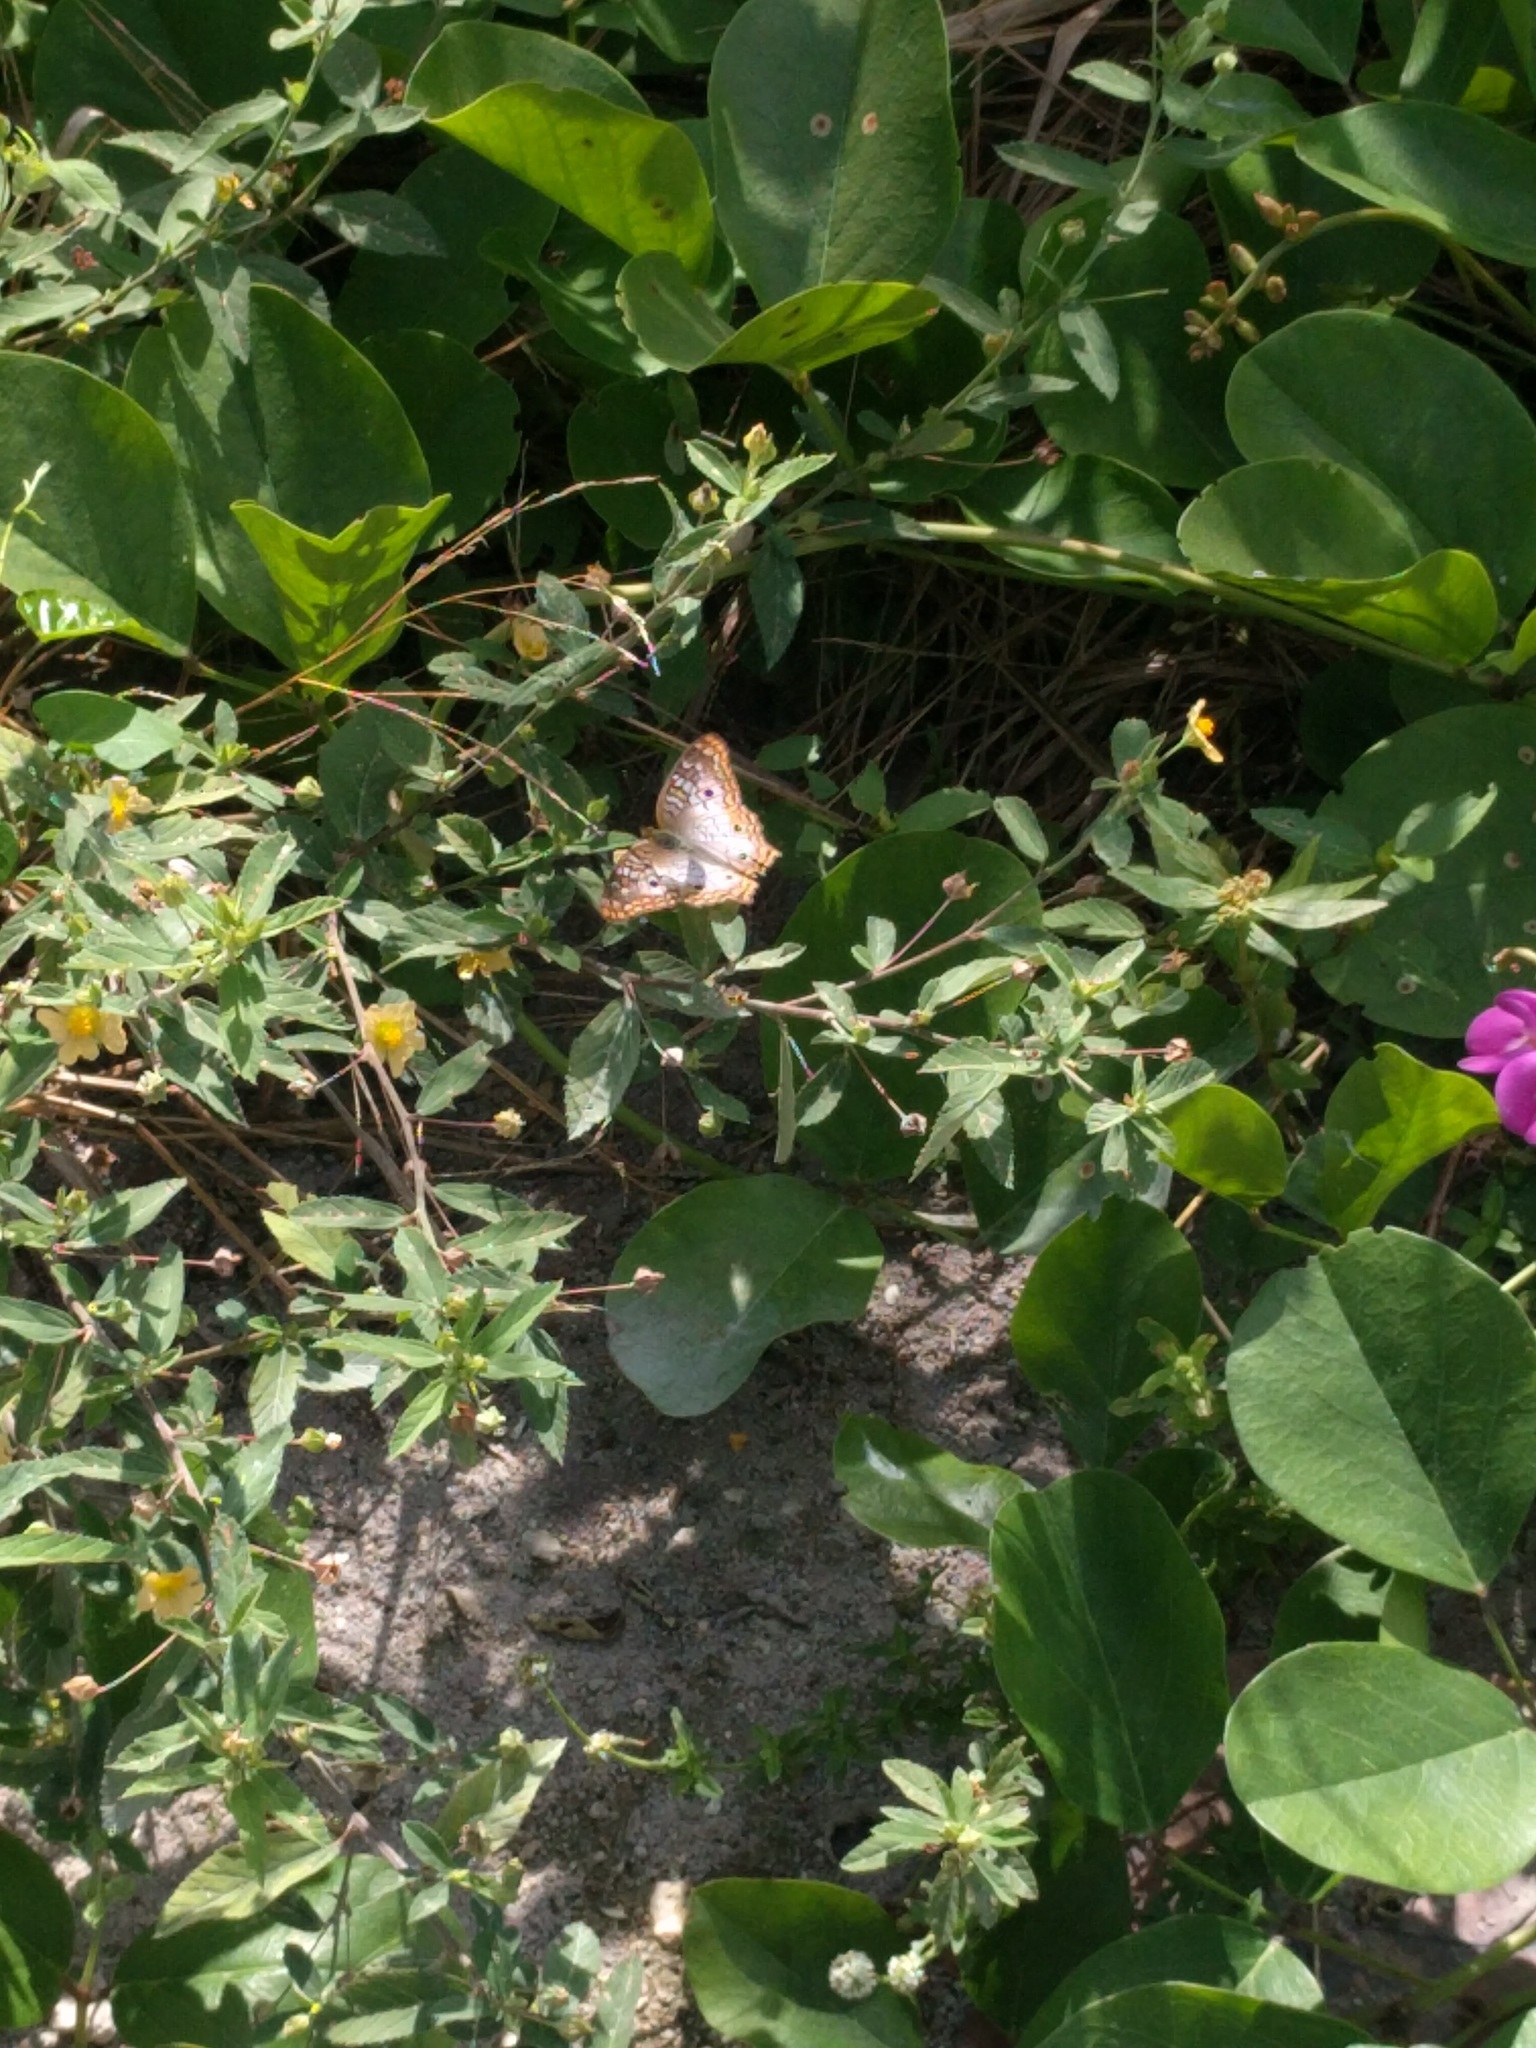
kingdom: Animalia
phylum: Arthropoda
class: Insecta
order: Lepidoptera
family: Nymphalidae
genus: Anartia
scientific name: Anartia jatrophae
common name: White peacock
